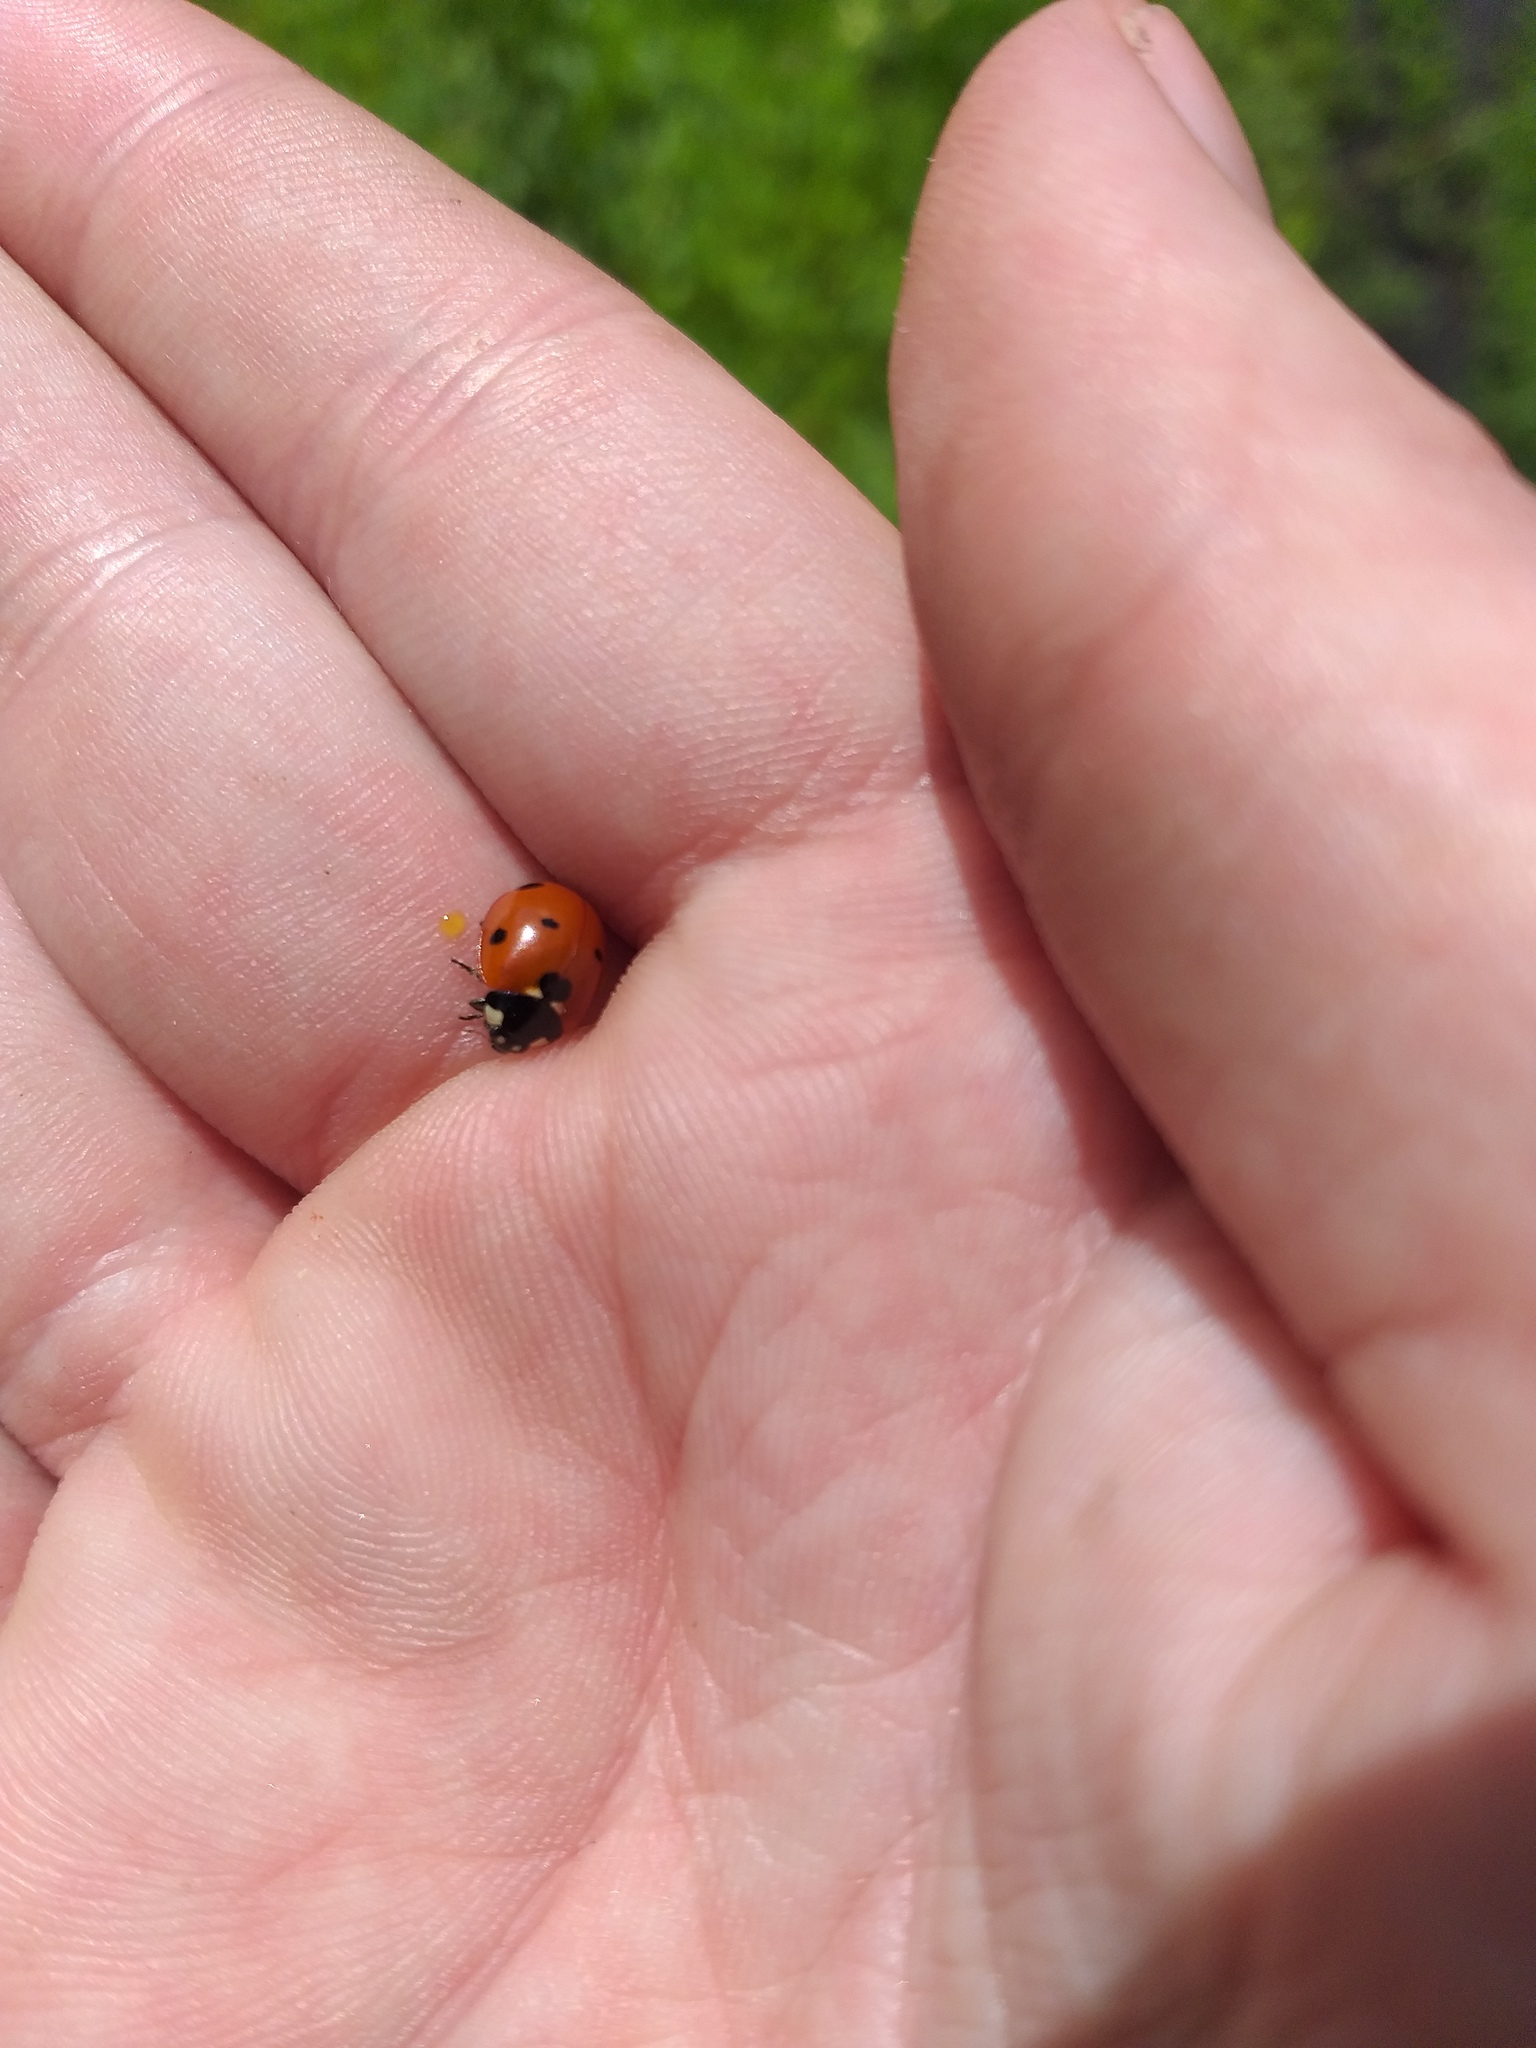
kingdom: Animalia
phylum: Arthropoda
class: Insecta
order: Coleoptera
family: Coccinellidae
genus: Coccinella
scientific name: Coccinella septempunctata
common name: Sevenspotted lady beetle
